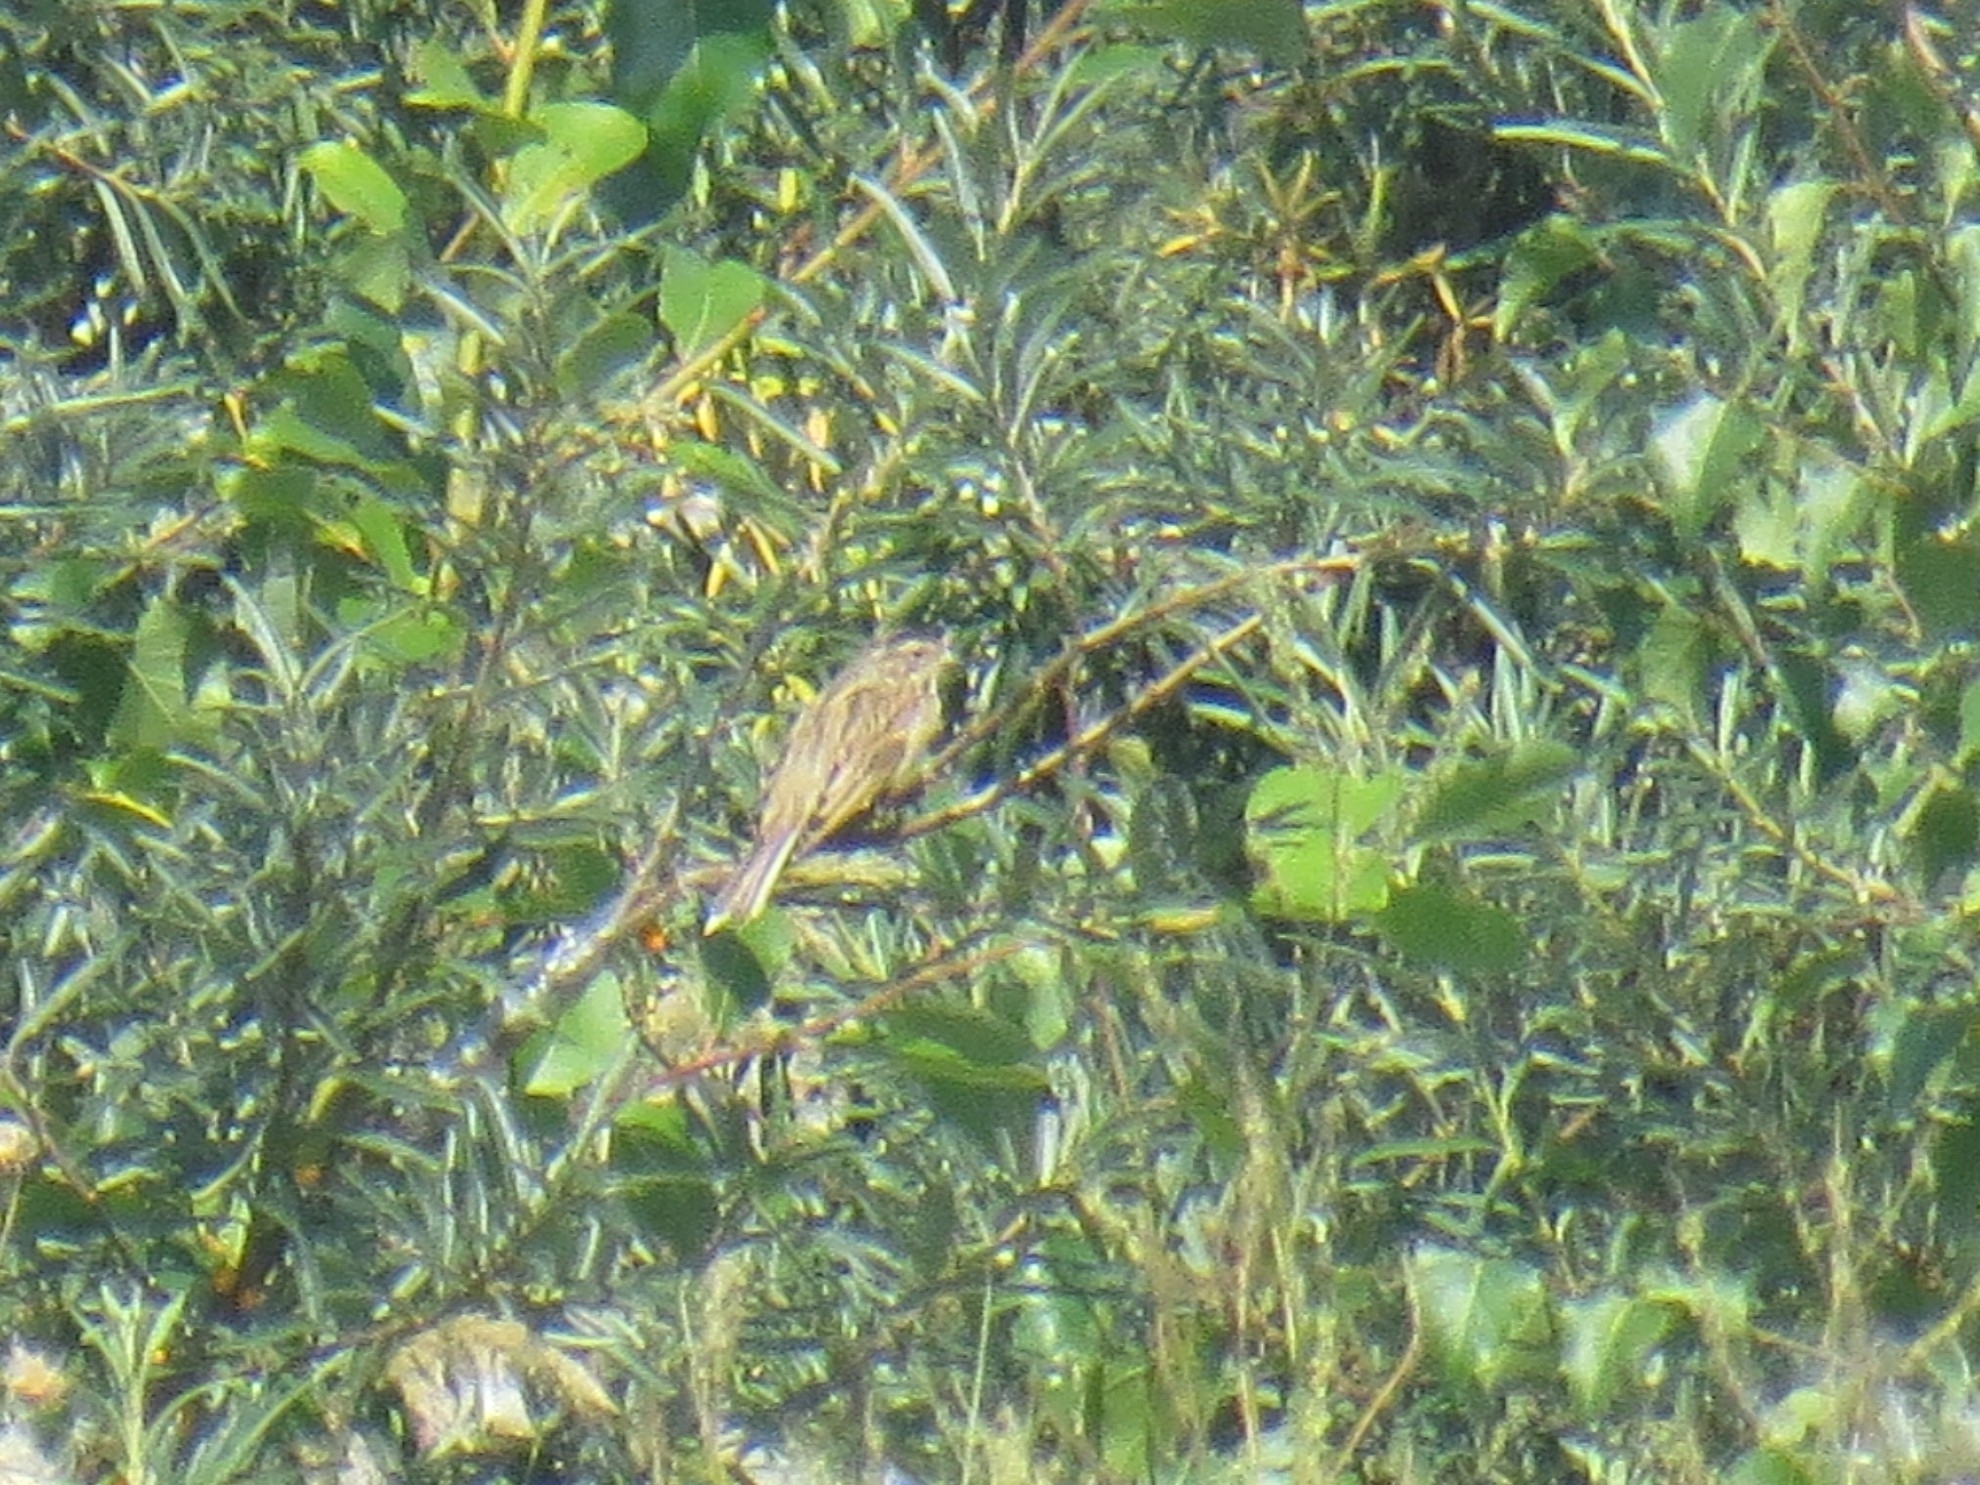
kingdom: Animalia
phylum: Chordata
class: Aves
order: Passeriformes
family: Emberizidae
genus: Emberiza
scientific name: Emberiza schoeniclus
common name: Reed bunting
